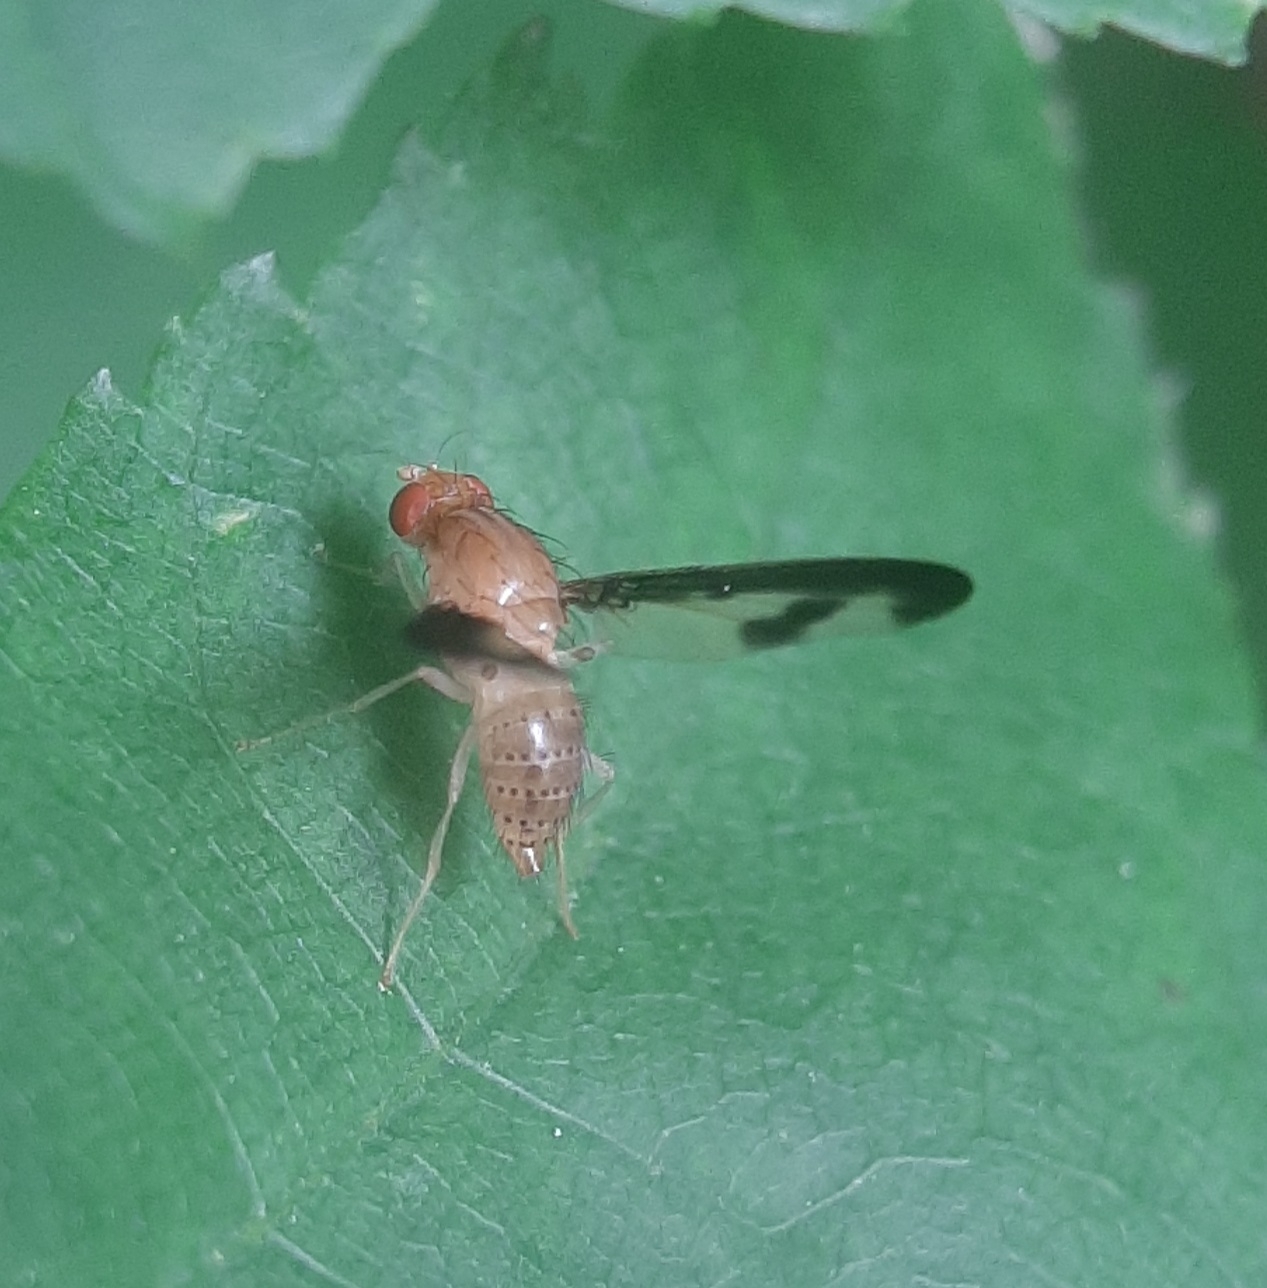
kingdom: Animalia
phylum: Arthropoda
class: Insecta
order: Diptera
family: Pallopteridae
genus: Toxonevra
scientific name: Toxonevra superba
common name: Antlered flutter fly
